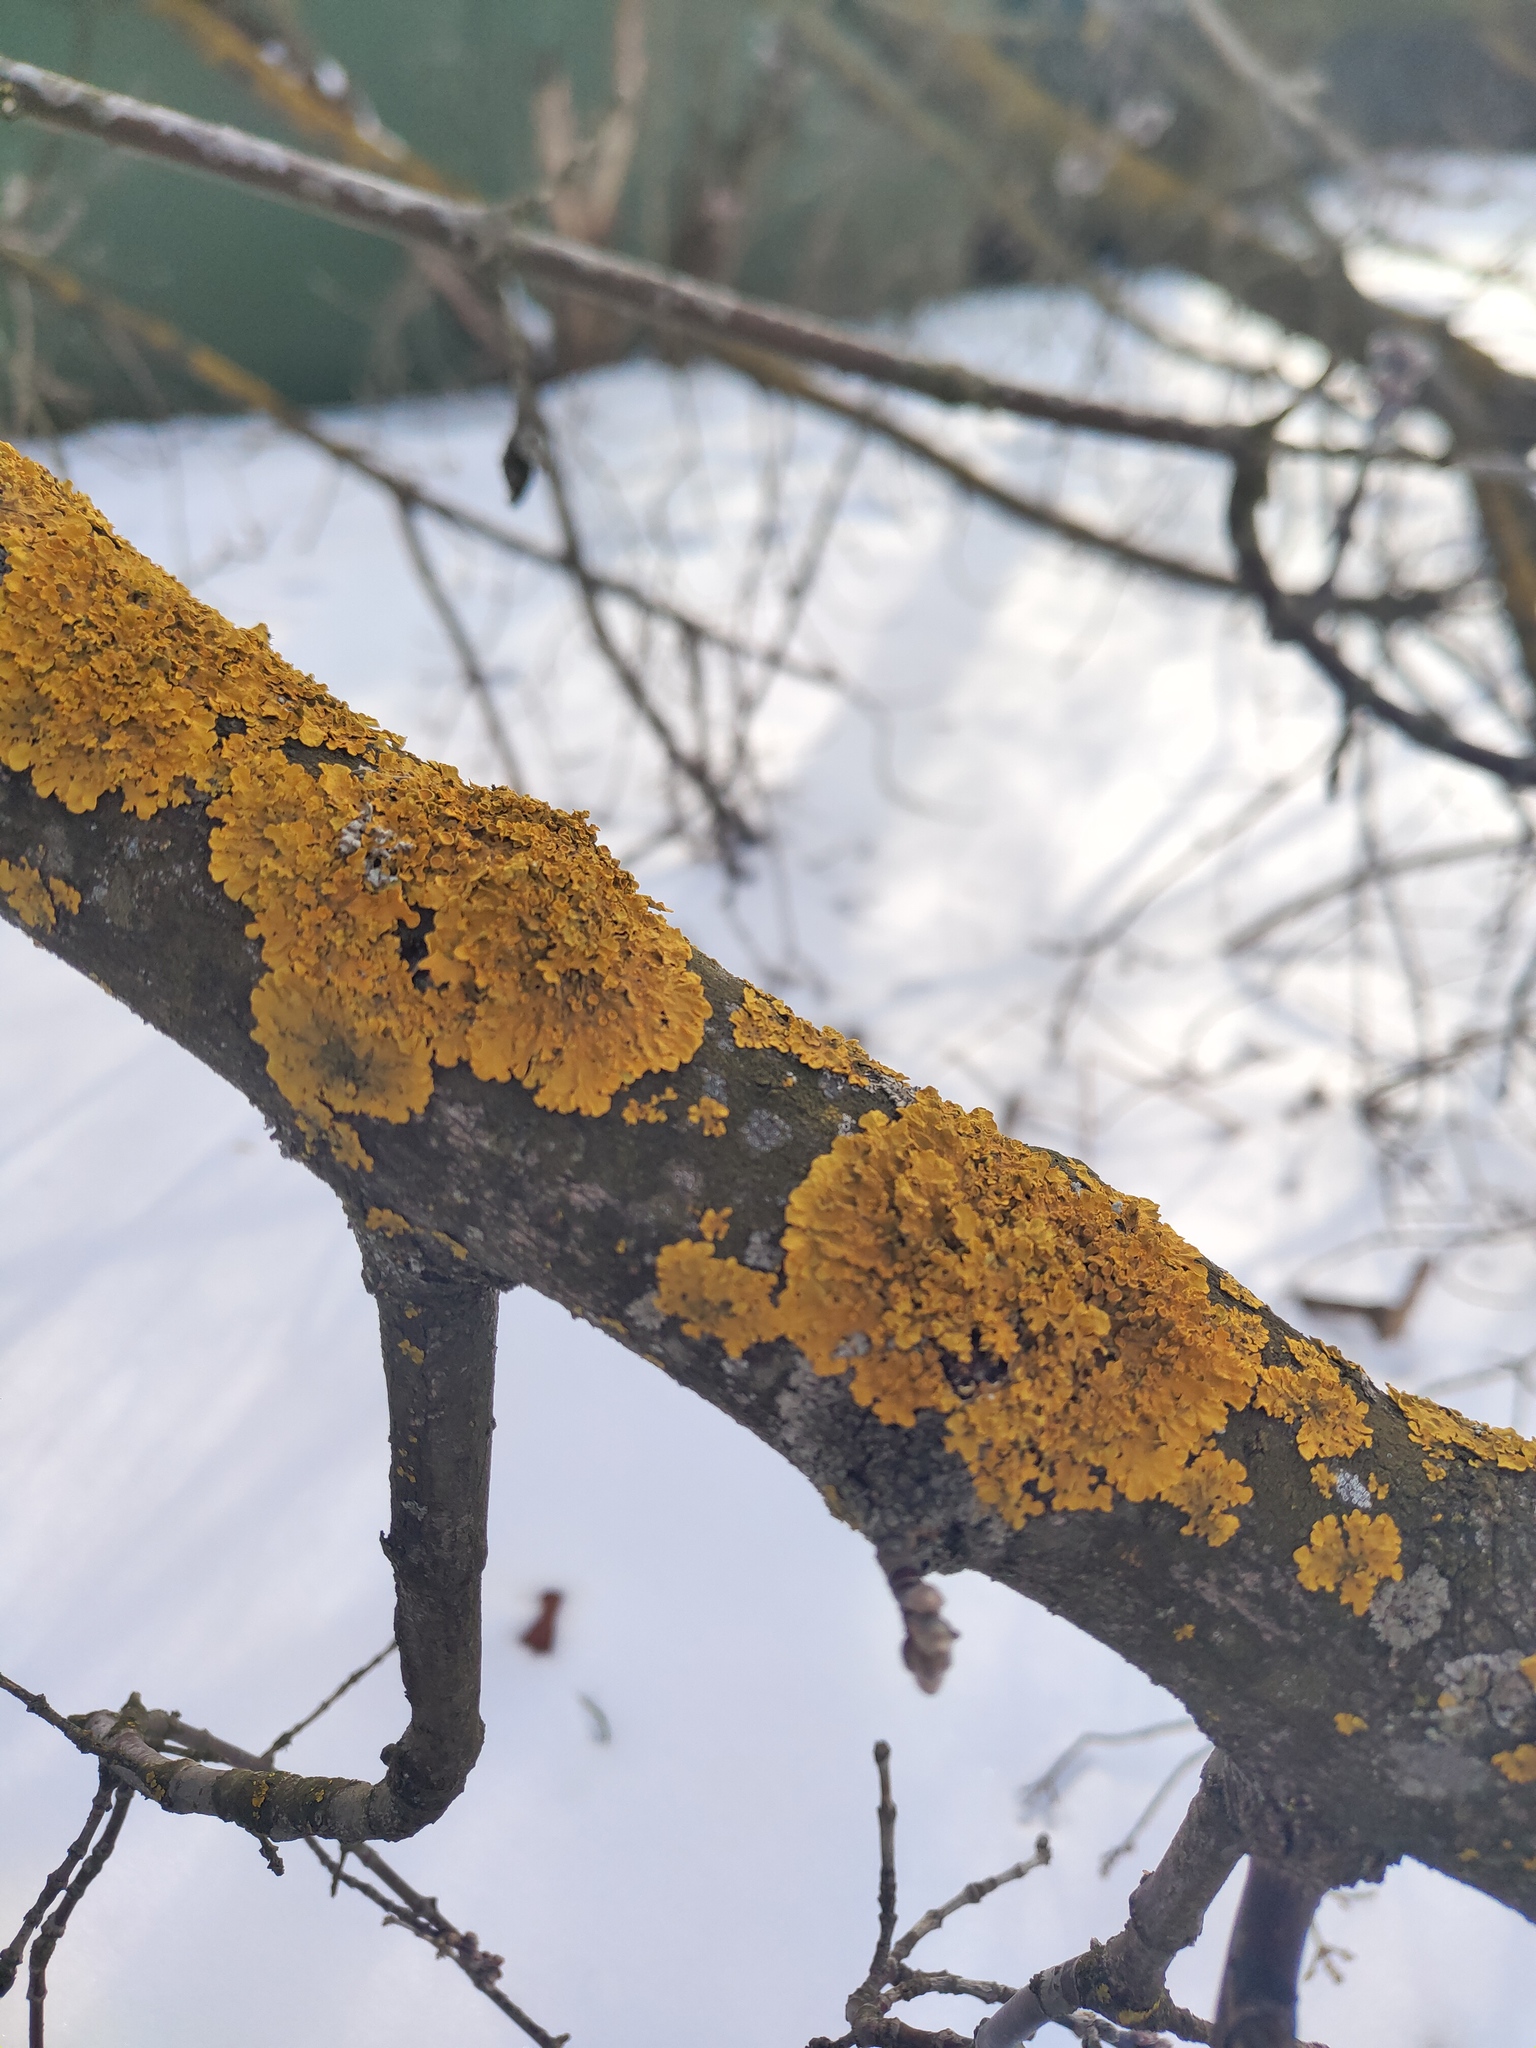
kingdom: Fungi
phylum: Ascomycota
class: Lecanoromycetes
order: Teloschistales
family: Teloschistaceae
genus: Xanthoria
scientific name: Xanthoria parietina
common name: Common orange lichen
